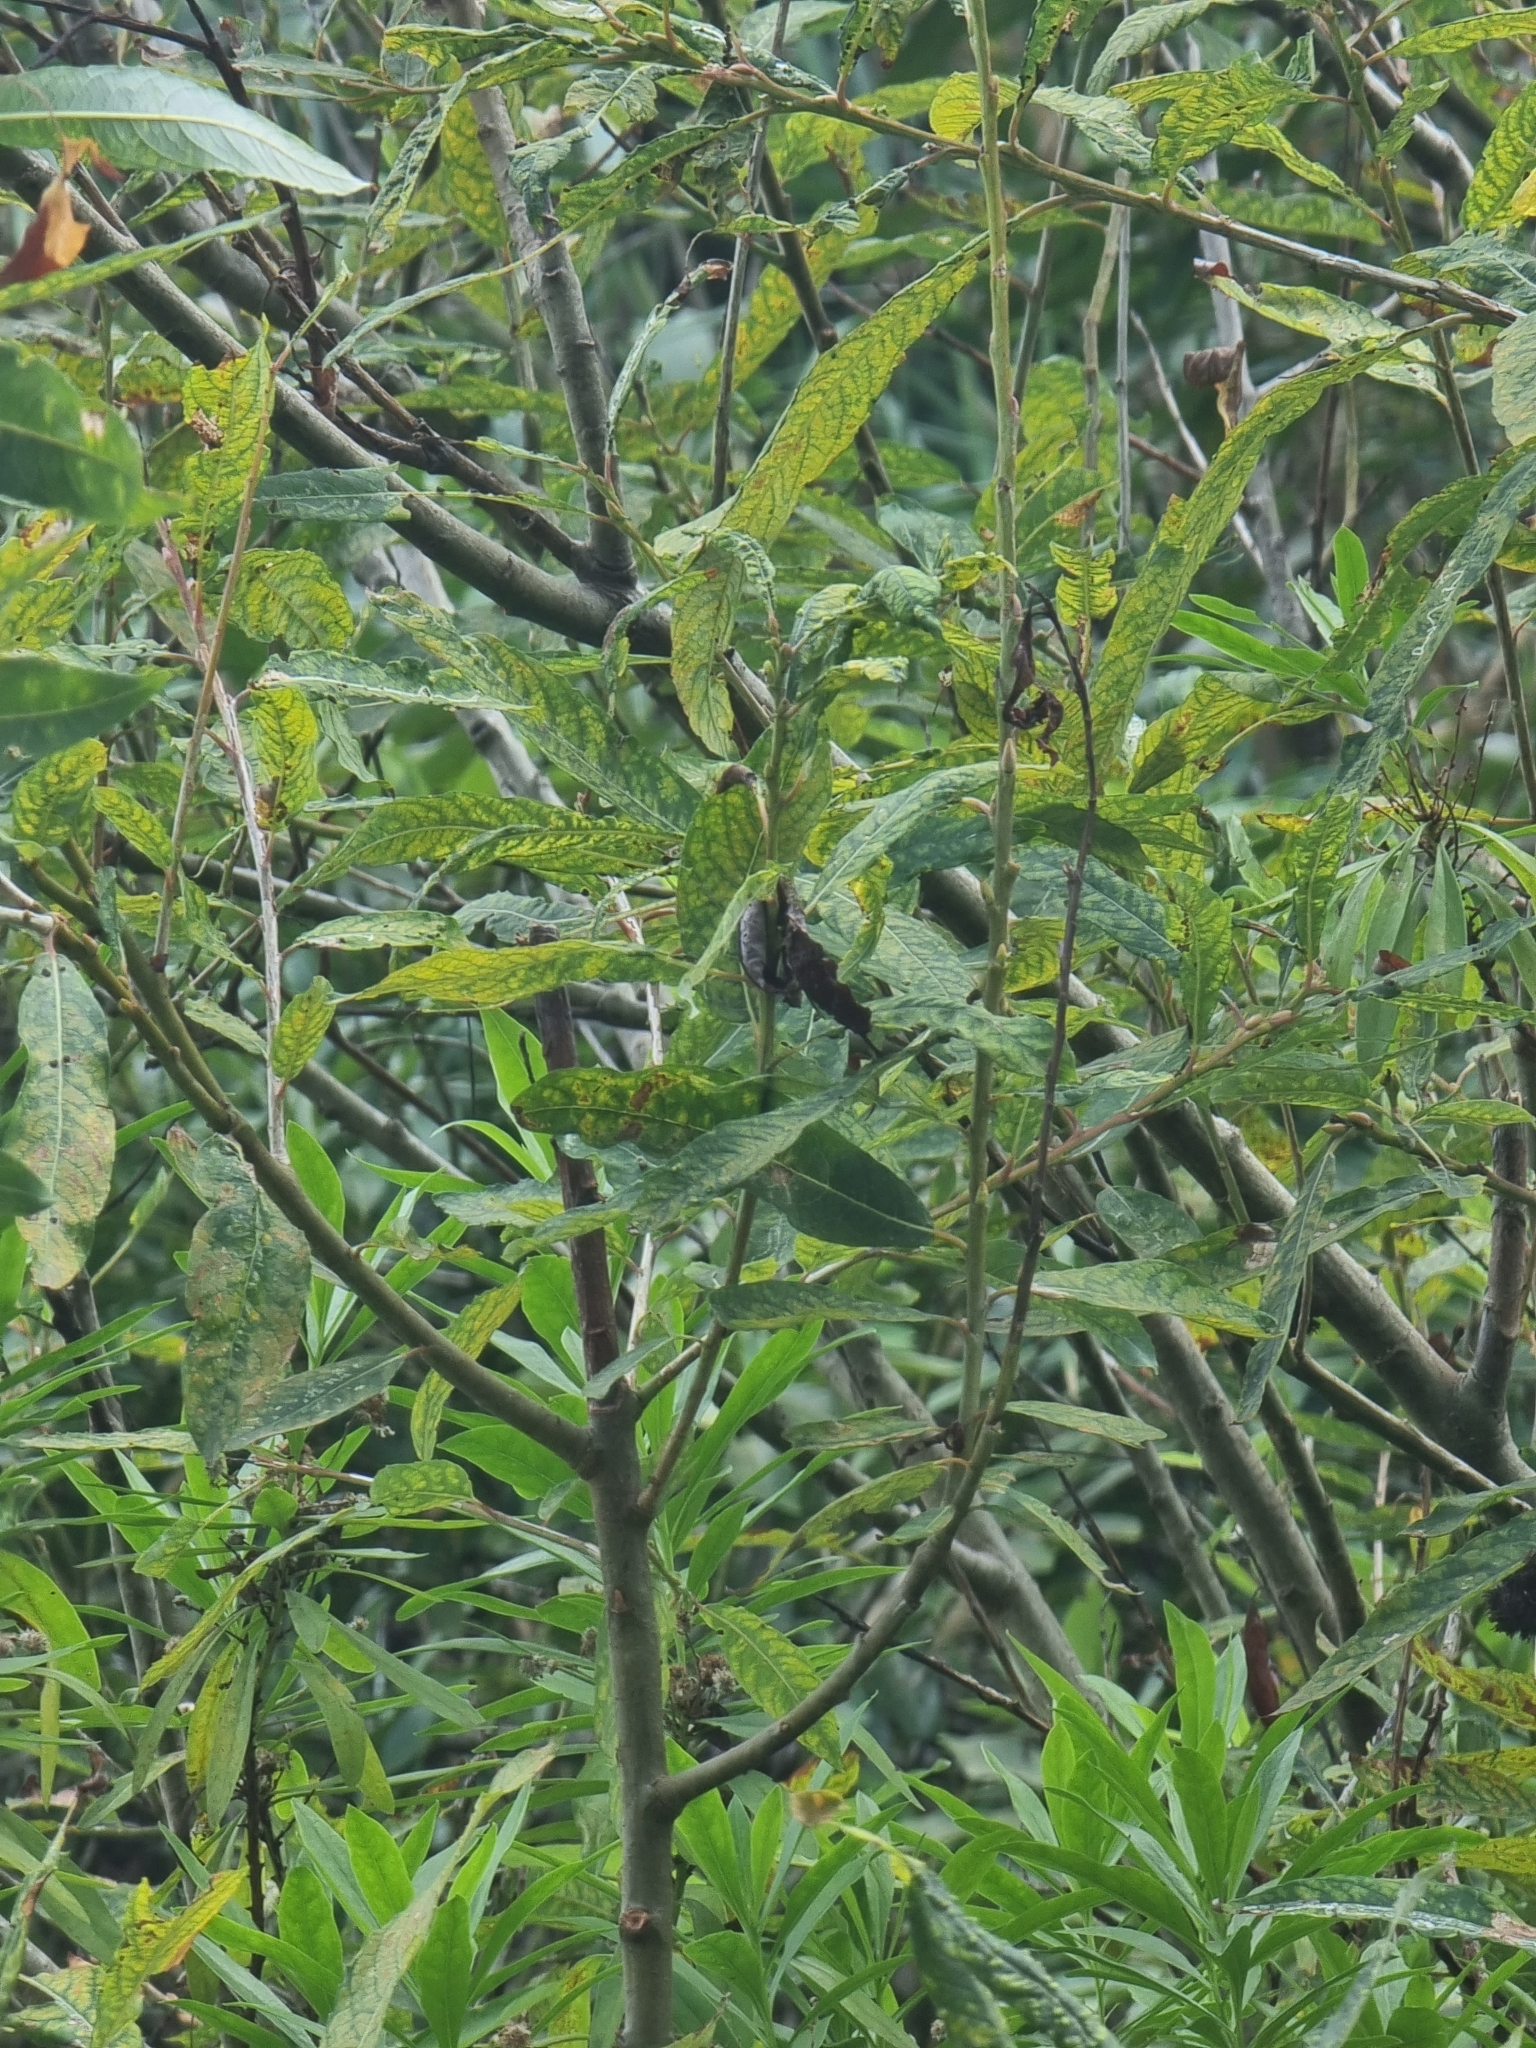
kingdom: Plantae
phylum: Tracheophyta
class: Magnoliopsida
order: Malpighiales
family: Salicaceae
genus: Salix
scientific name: Salix canariensis
